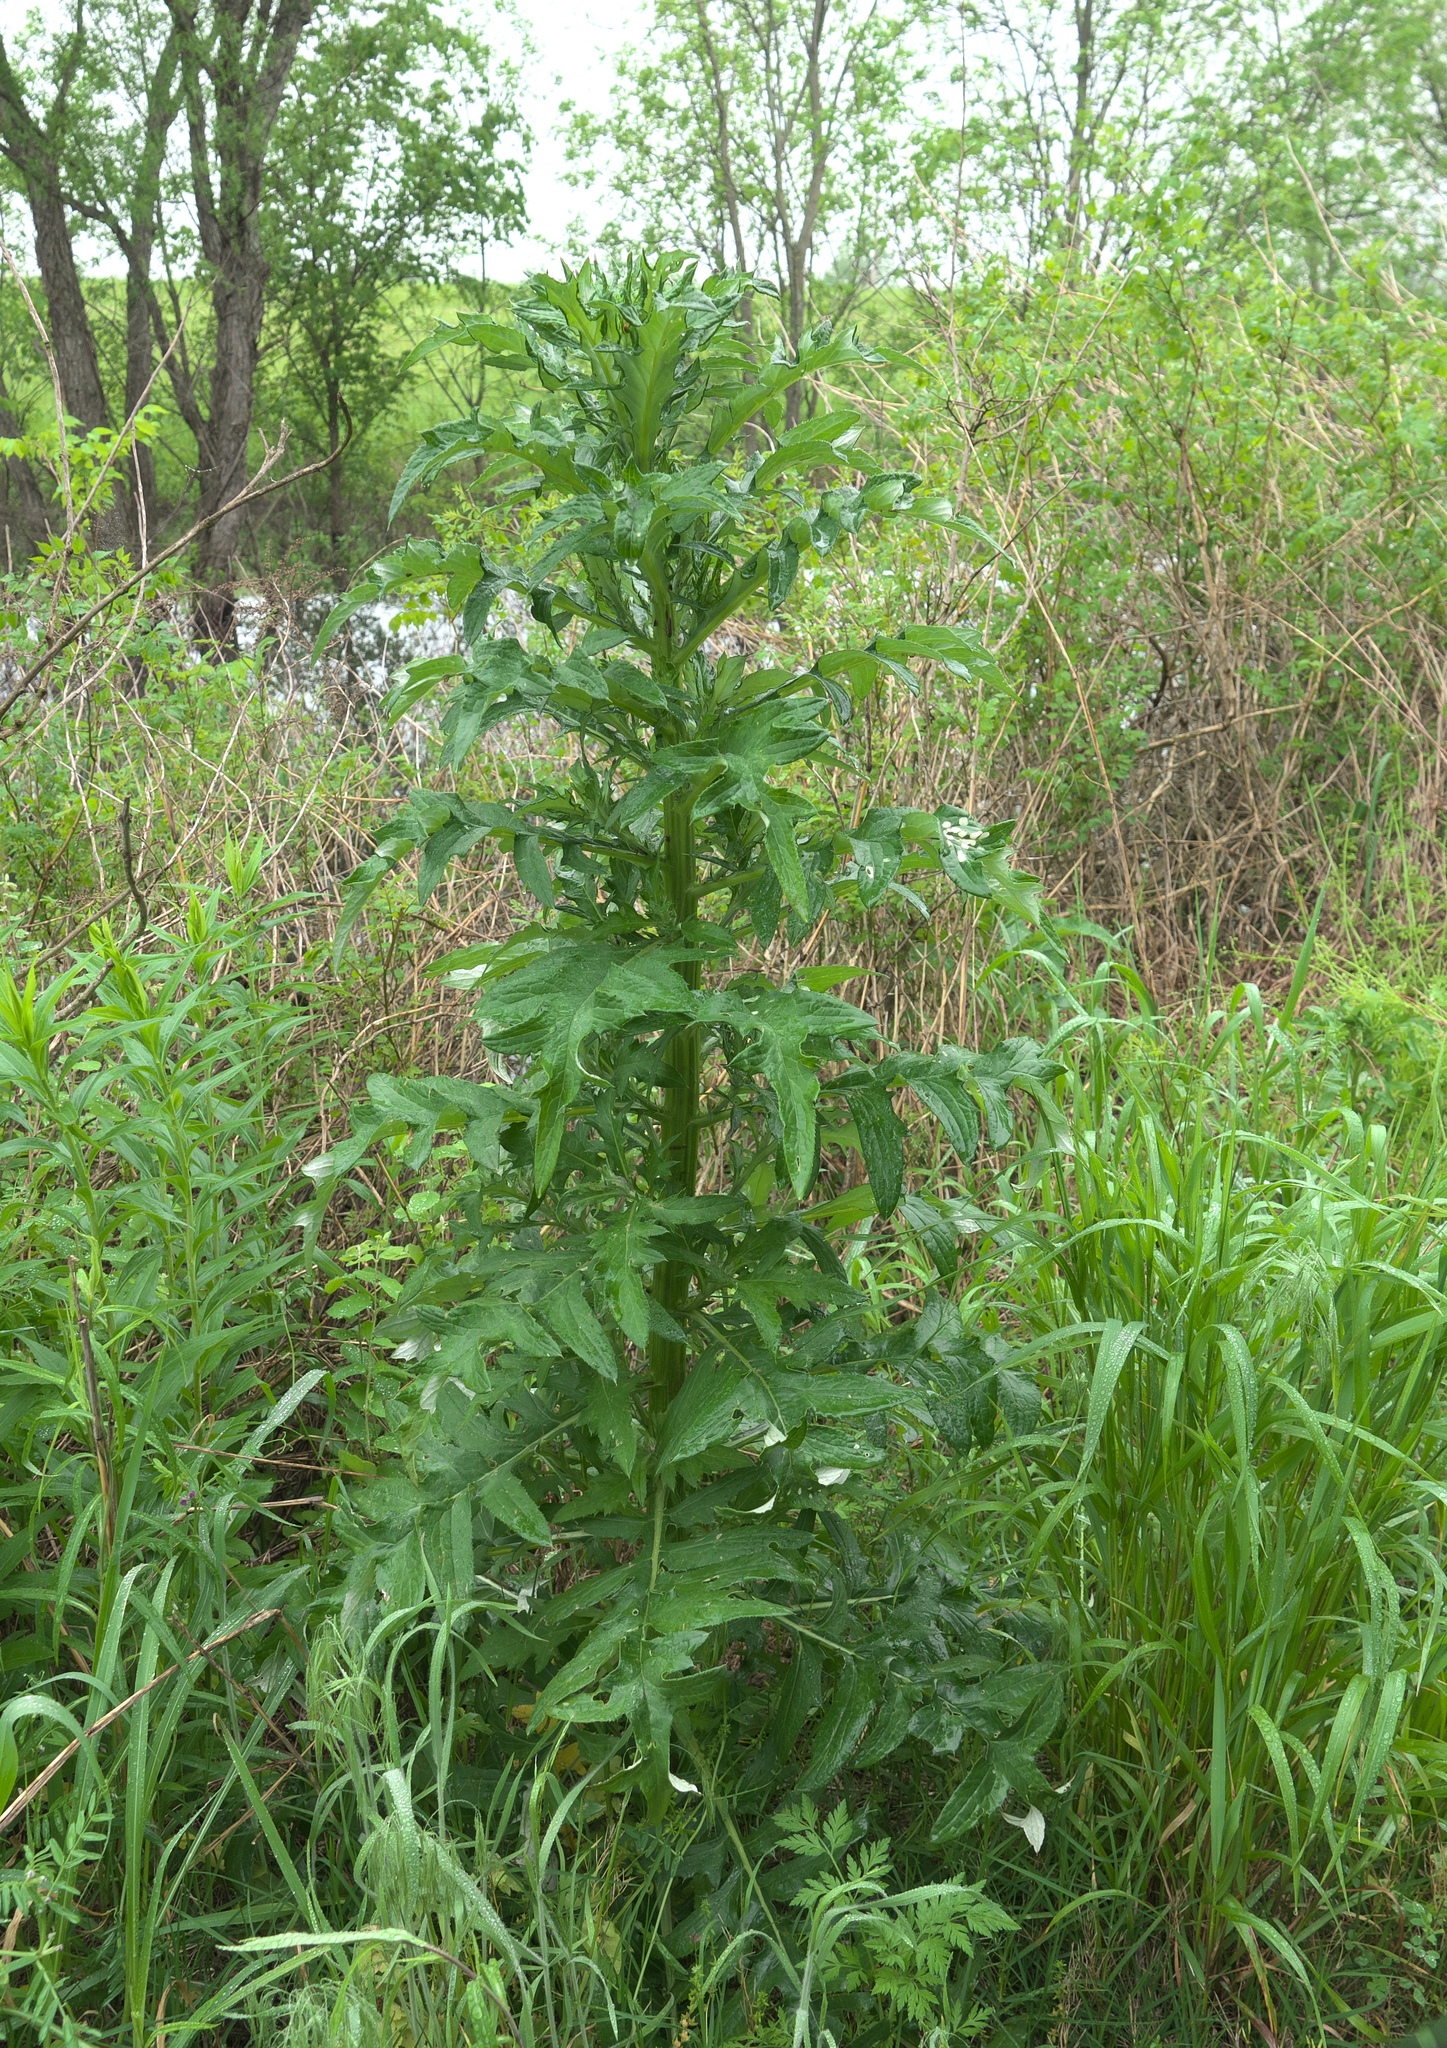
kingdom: Plantae
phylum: Tracheophyta
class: Magnoliopsida
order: Asterales
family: Asteraceae
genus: Cirsium
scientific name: Cirsium altissimum
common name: Roadside thistle
